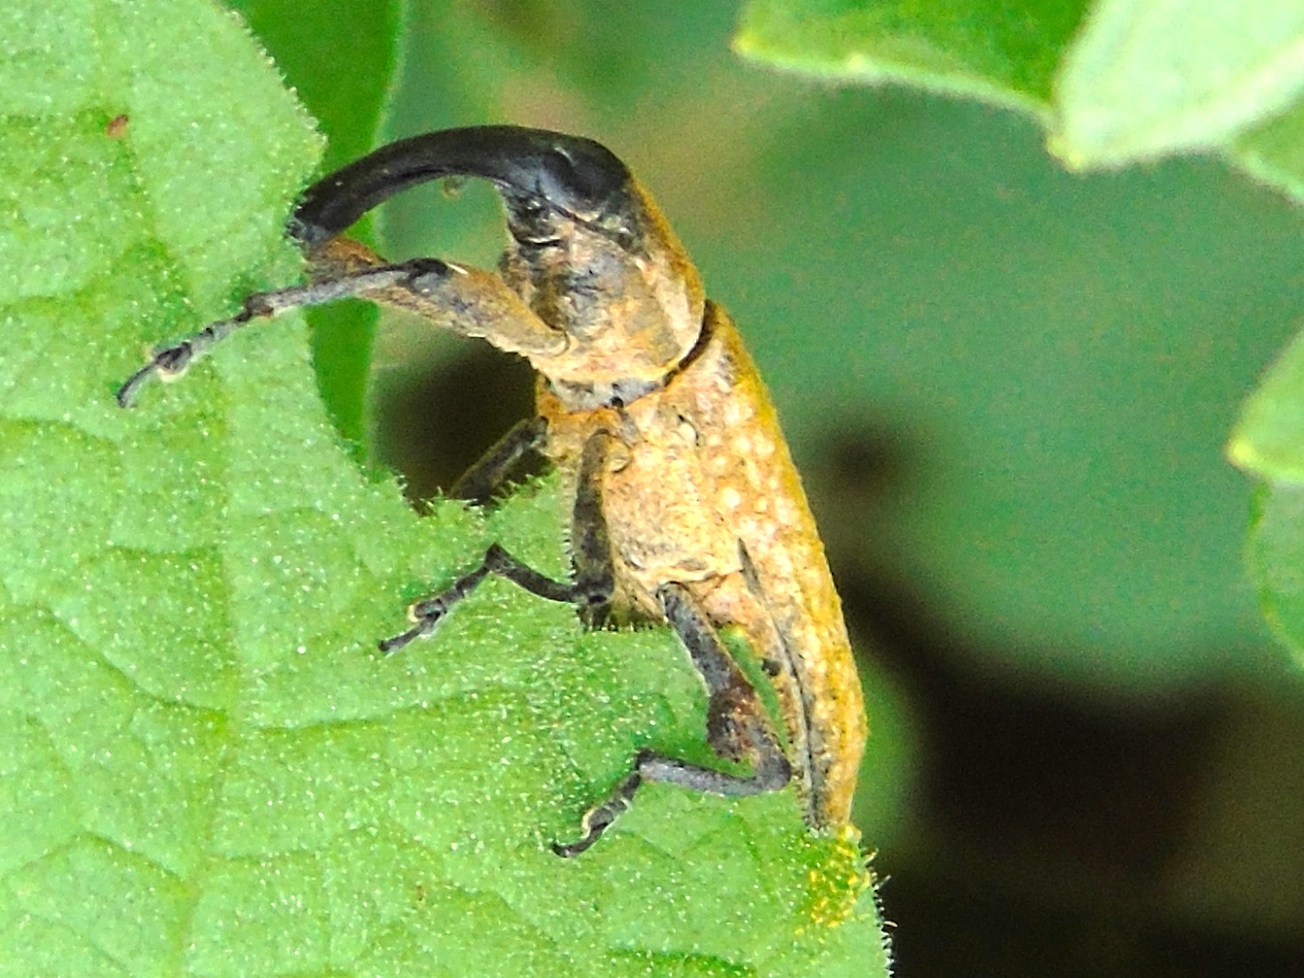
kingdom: Animalia
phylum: Arthropoda
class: Insecta
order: Coleoptera
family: Curculionidae
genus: Lixus
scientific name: Lixus
